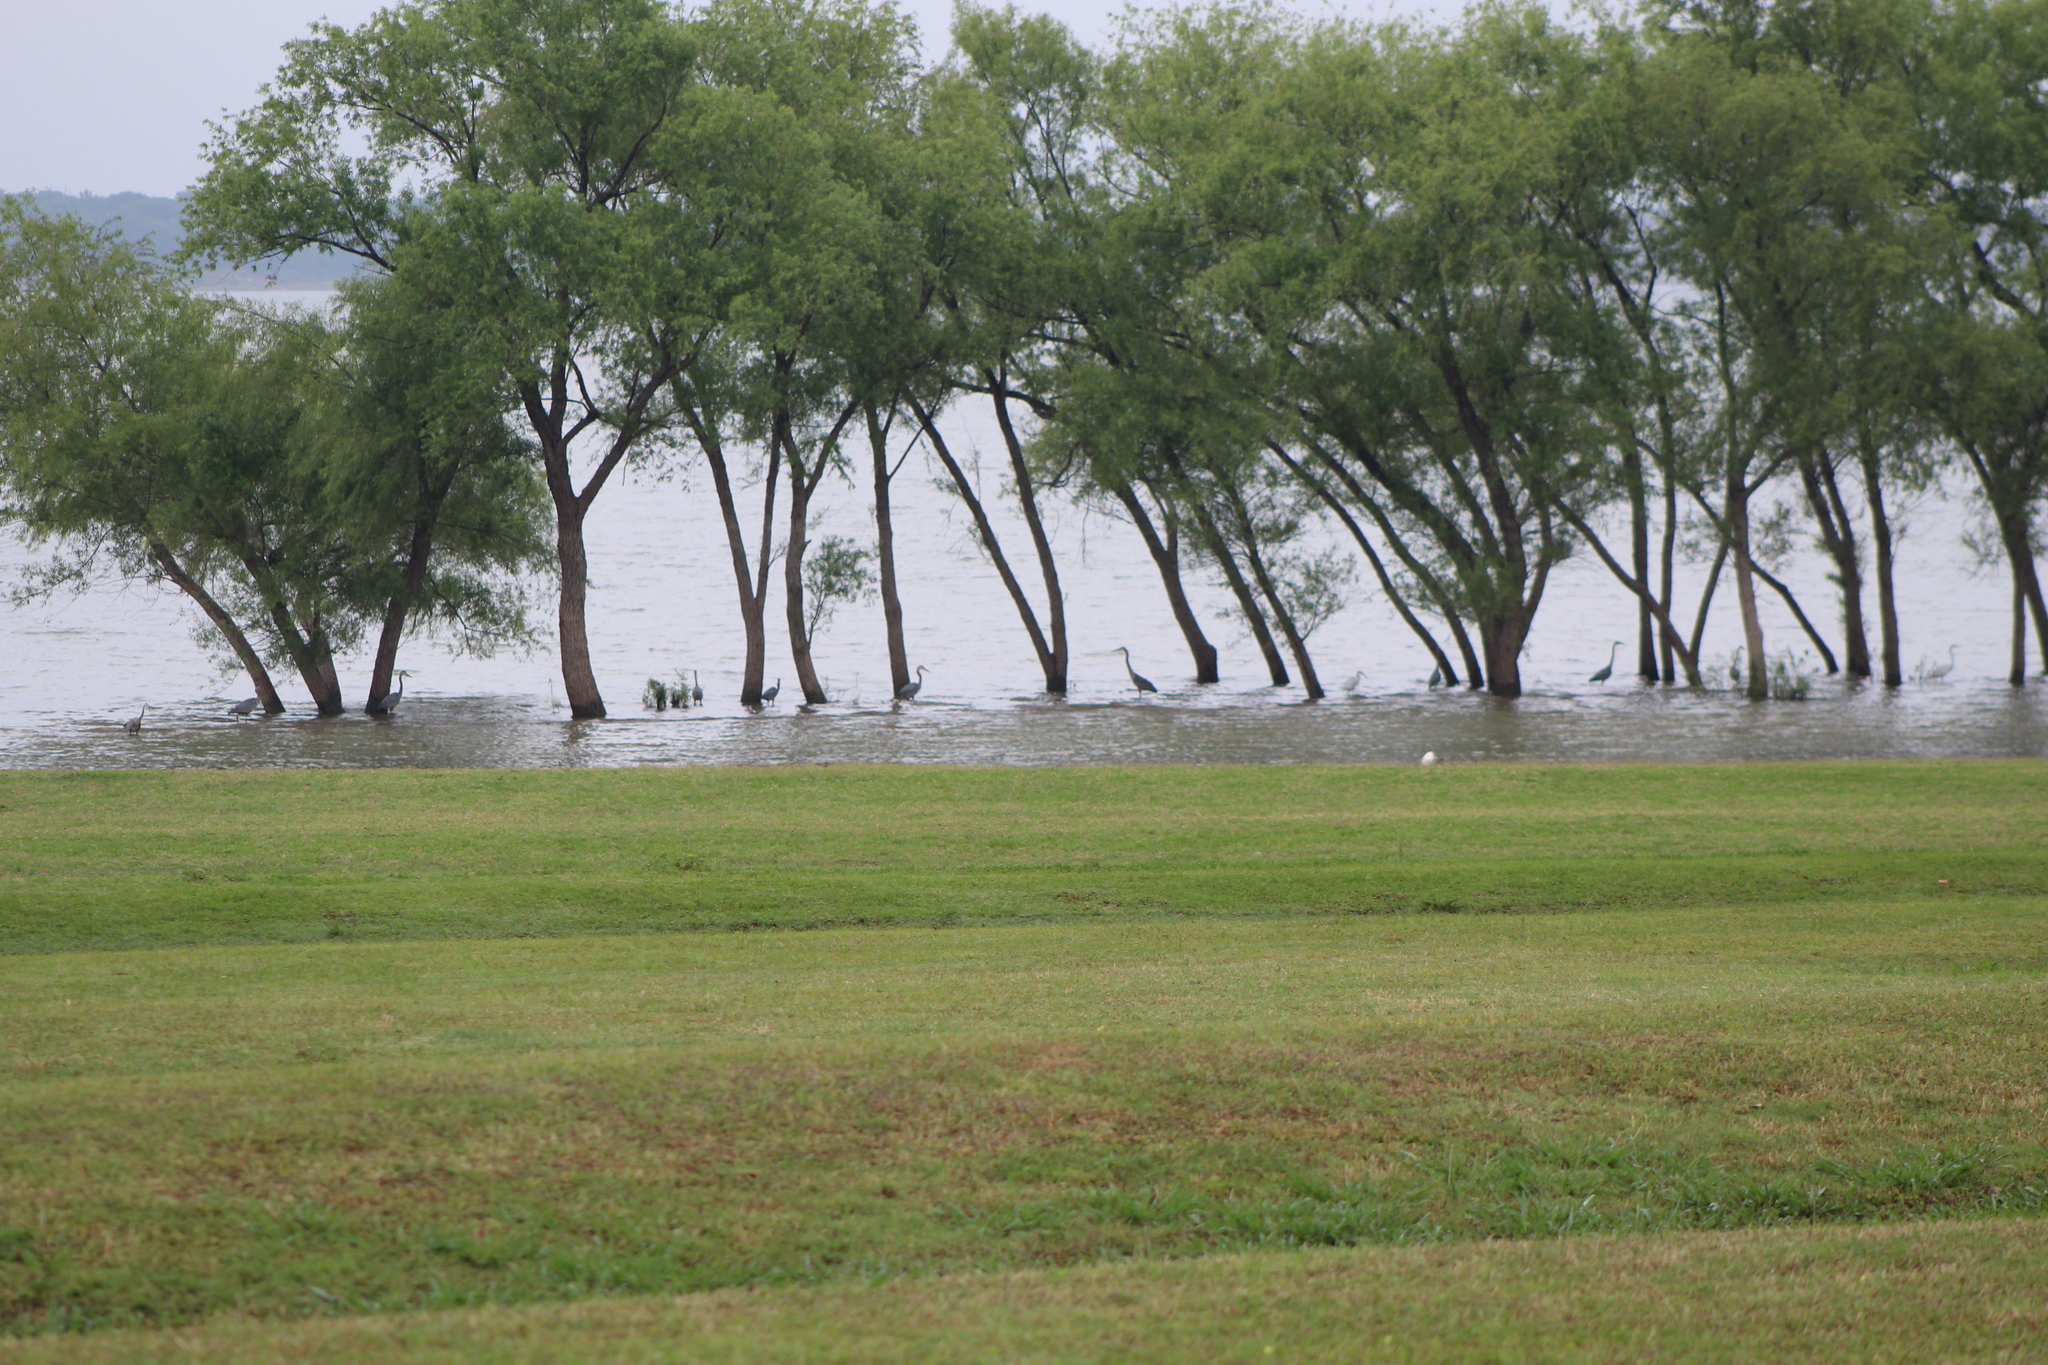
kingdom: Animalia
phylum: Chordata
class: Aves
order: Pelecaniformes
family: Ardeidae
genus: Ardea
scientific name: Ardea herodias
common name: Great blue heron
